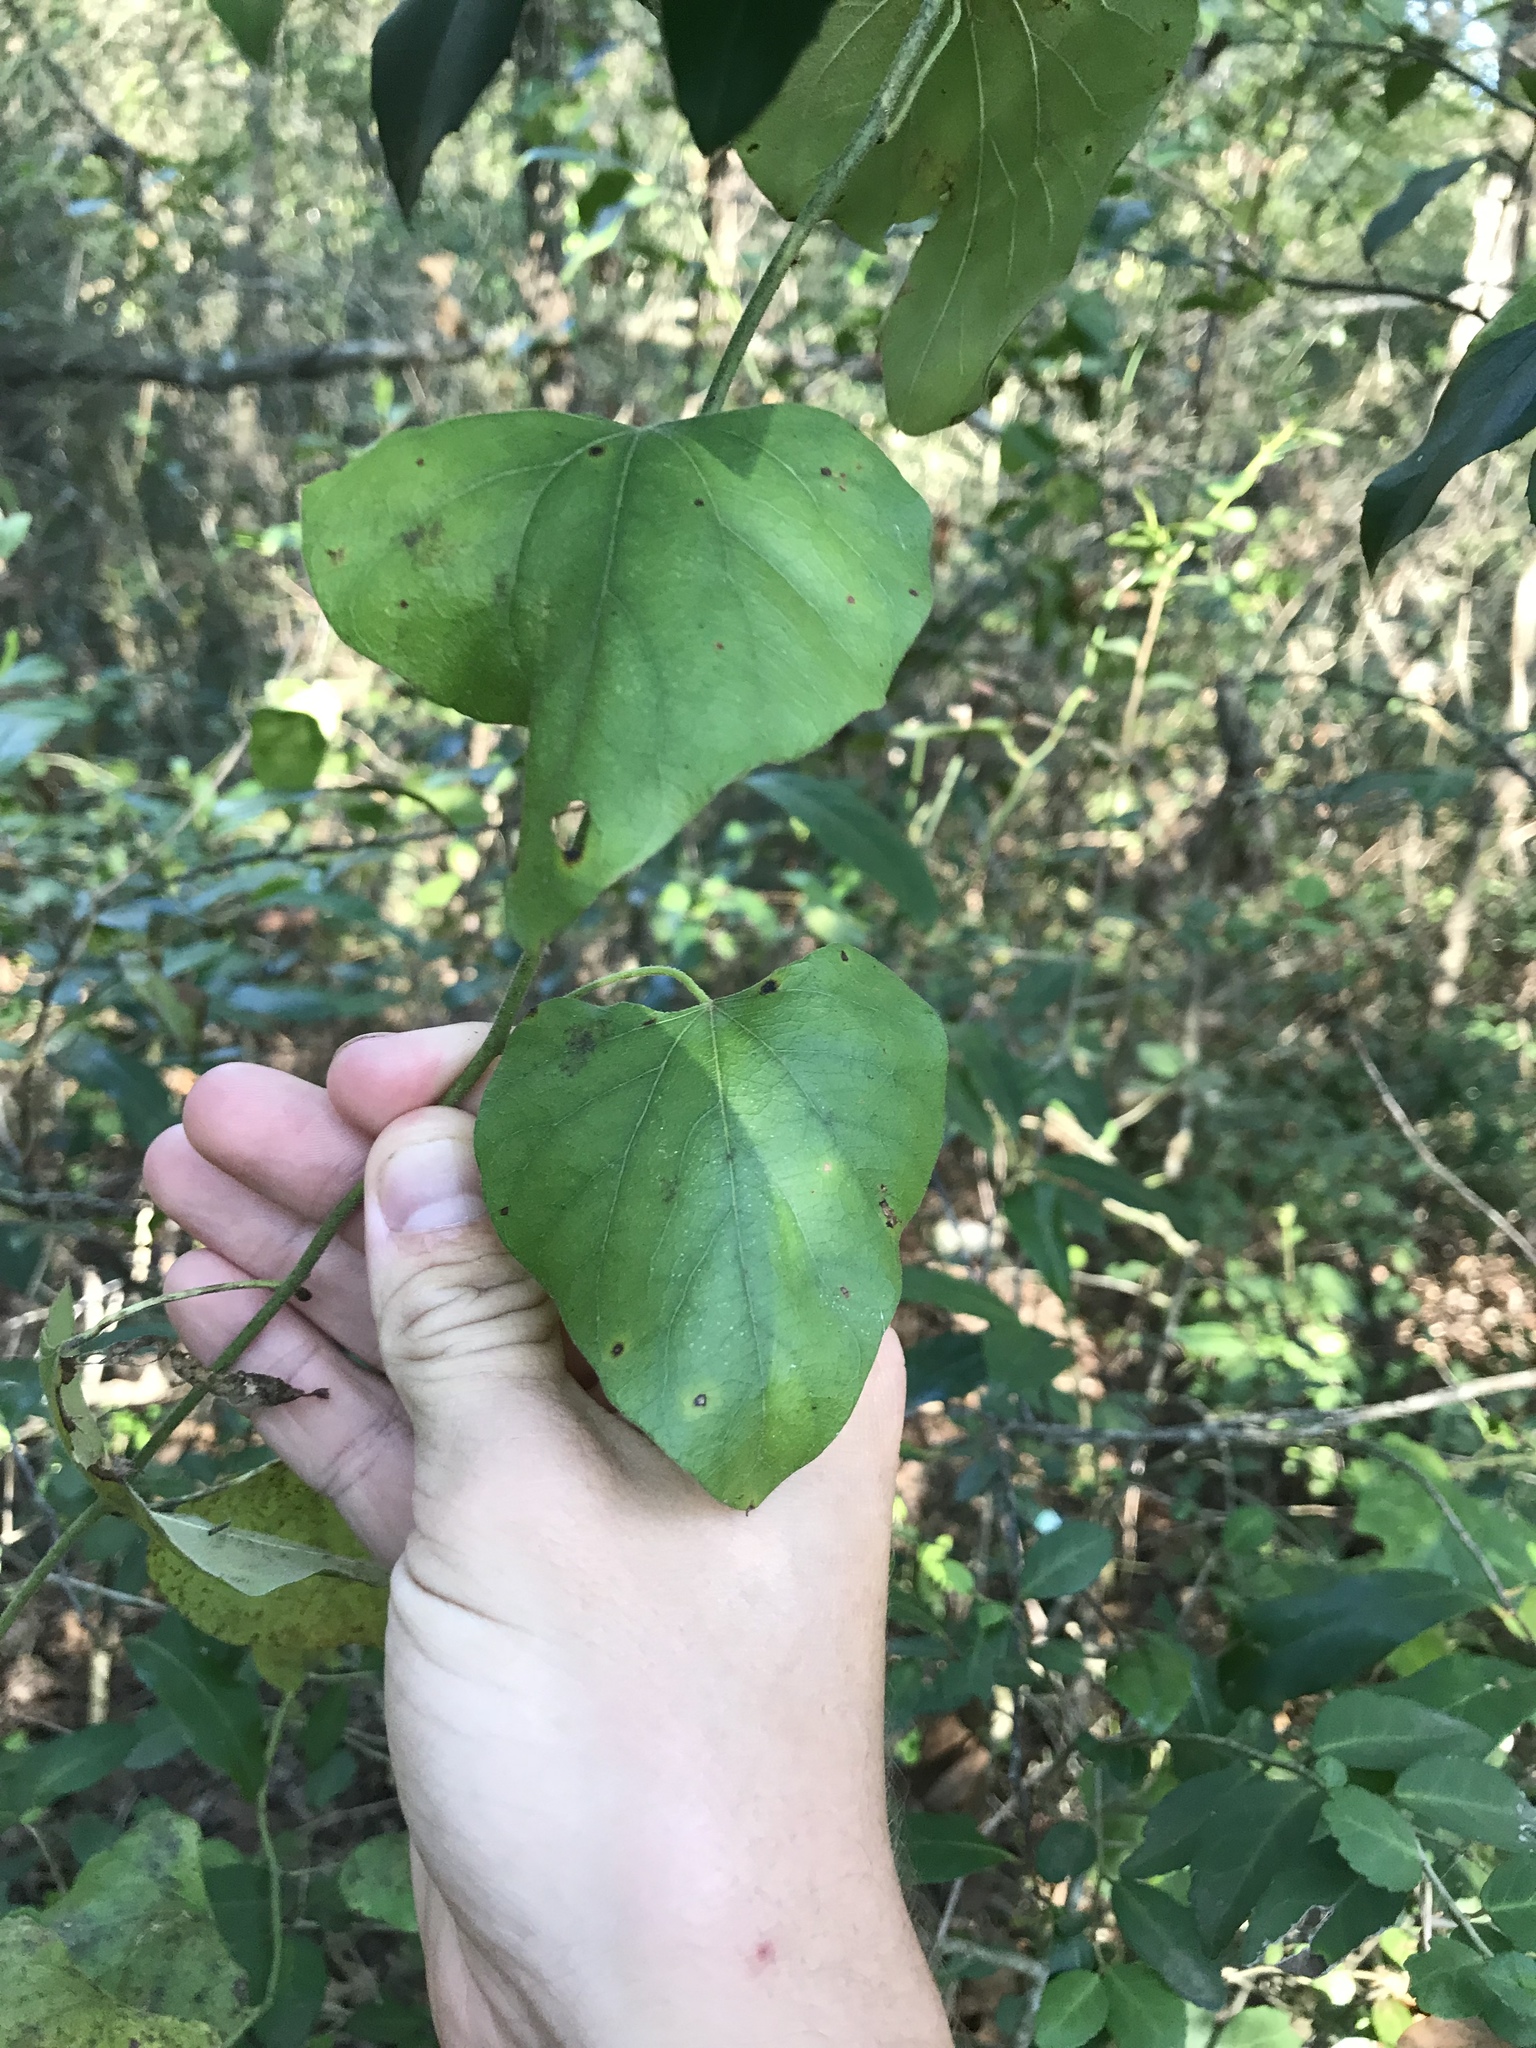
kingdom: Plantae
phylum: Tracheophyta
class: Magnoliopsida
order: Ranunculales
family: Menispermaceae
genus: Cocculus
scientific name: Cocculus carolinus
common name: Carolina moonseed
